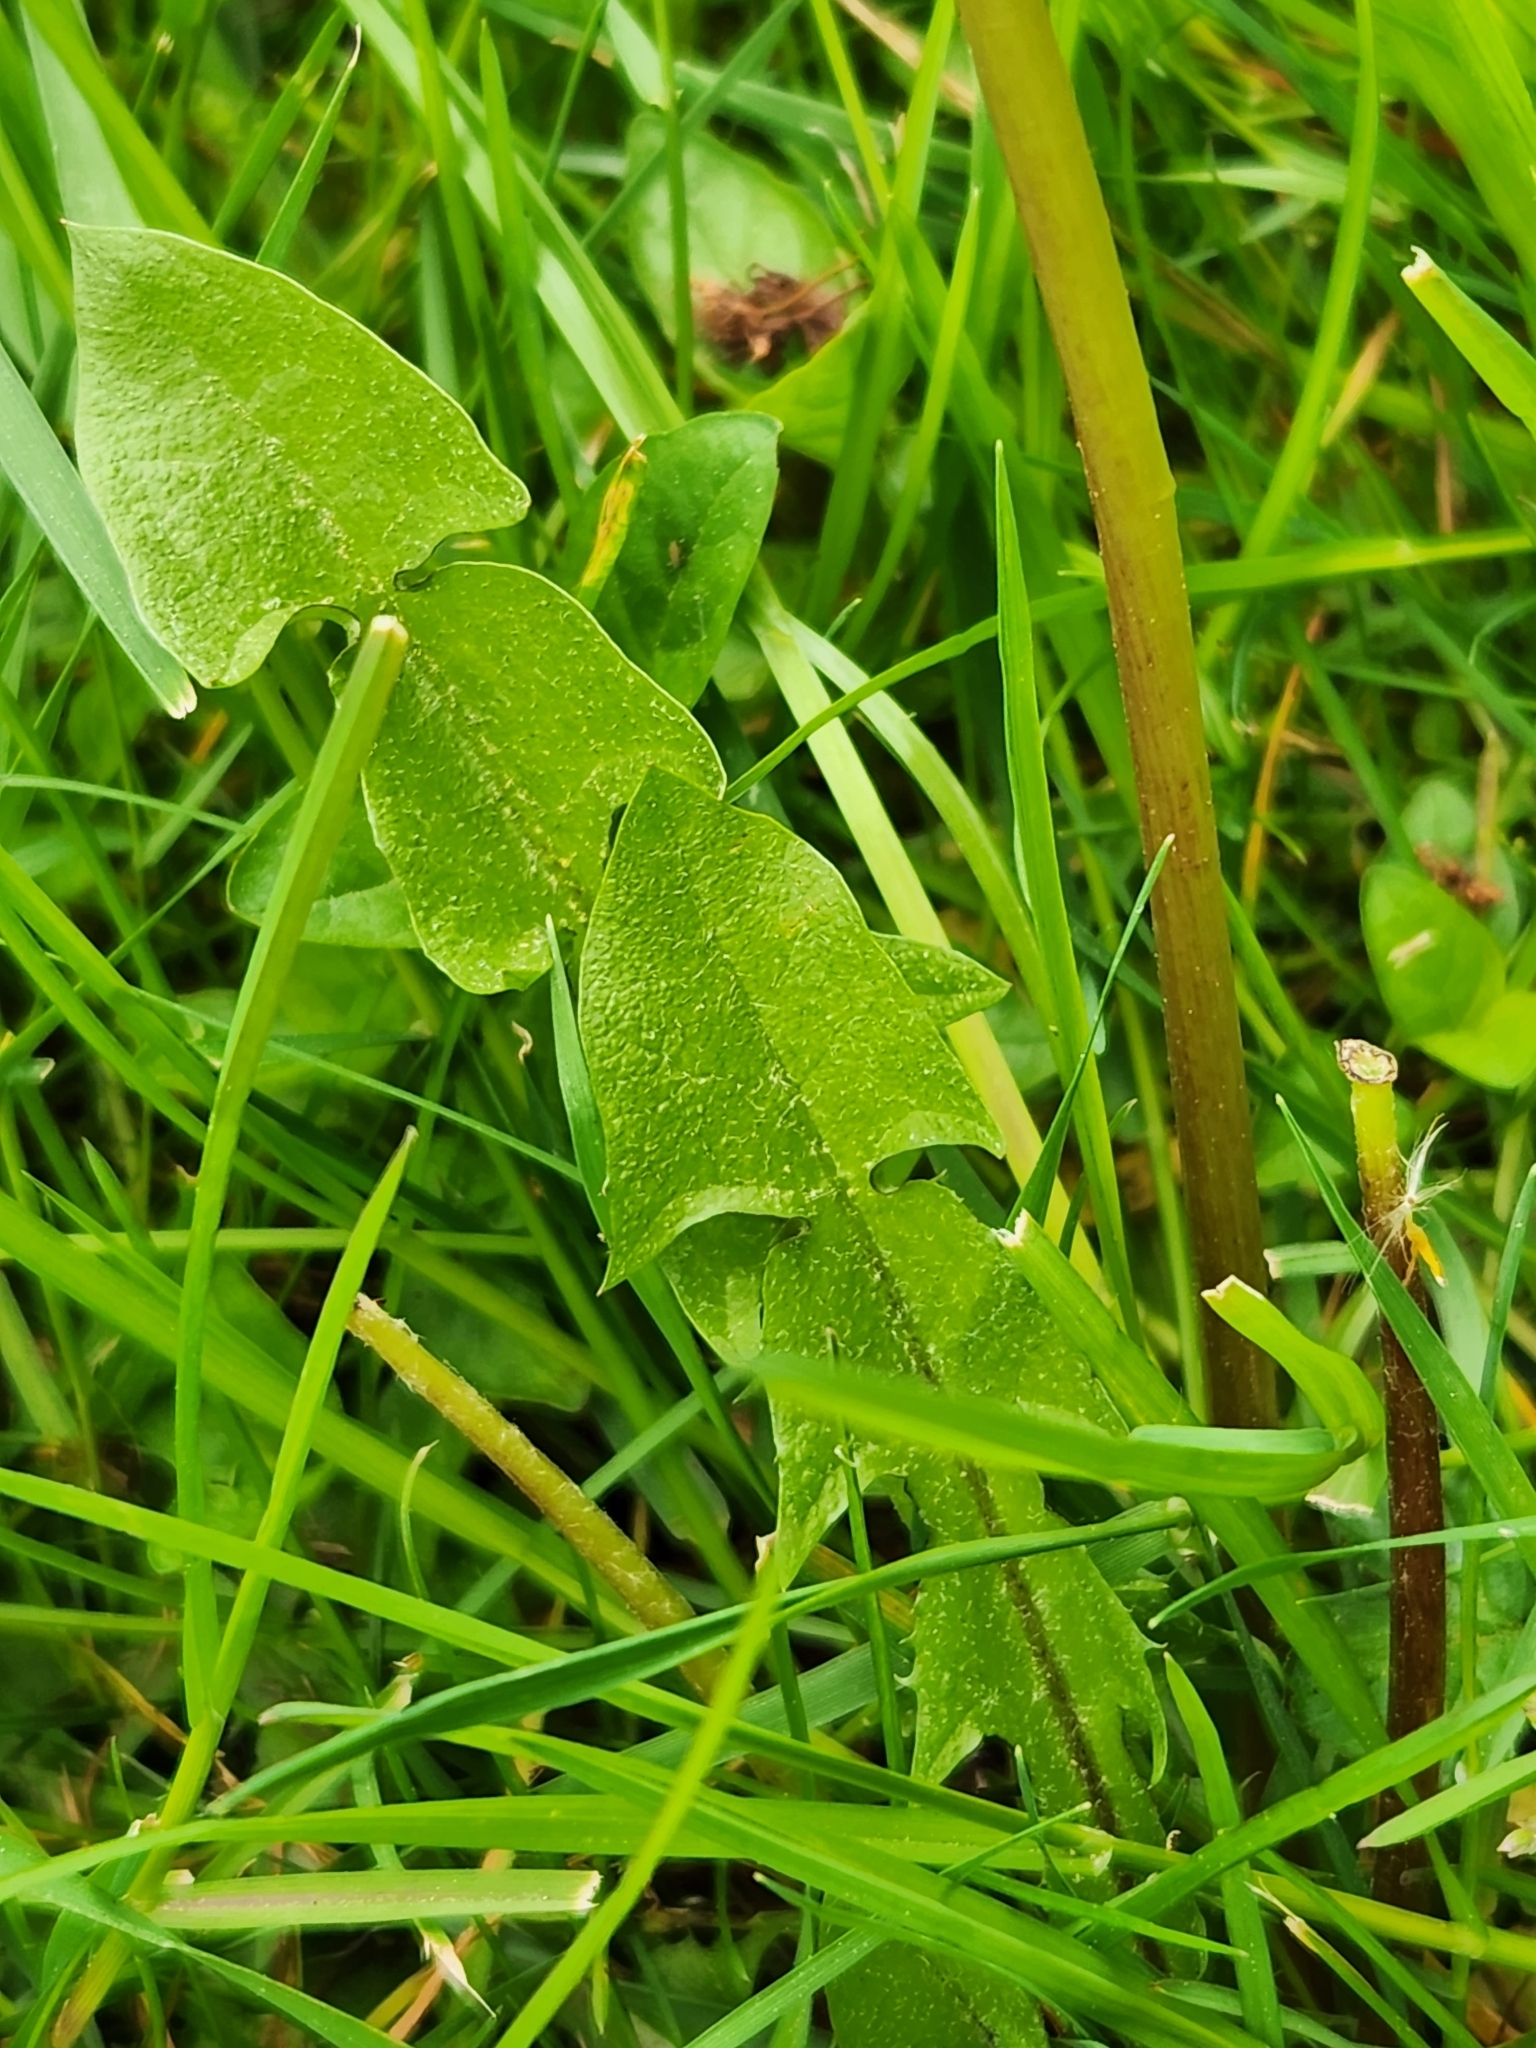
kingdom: Plantae
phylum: Tracheophyta
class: Magnoliopsida
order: Asterales
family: Asteraceae
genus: Taraxacum
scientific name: Taraxacum
